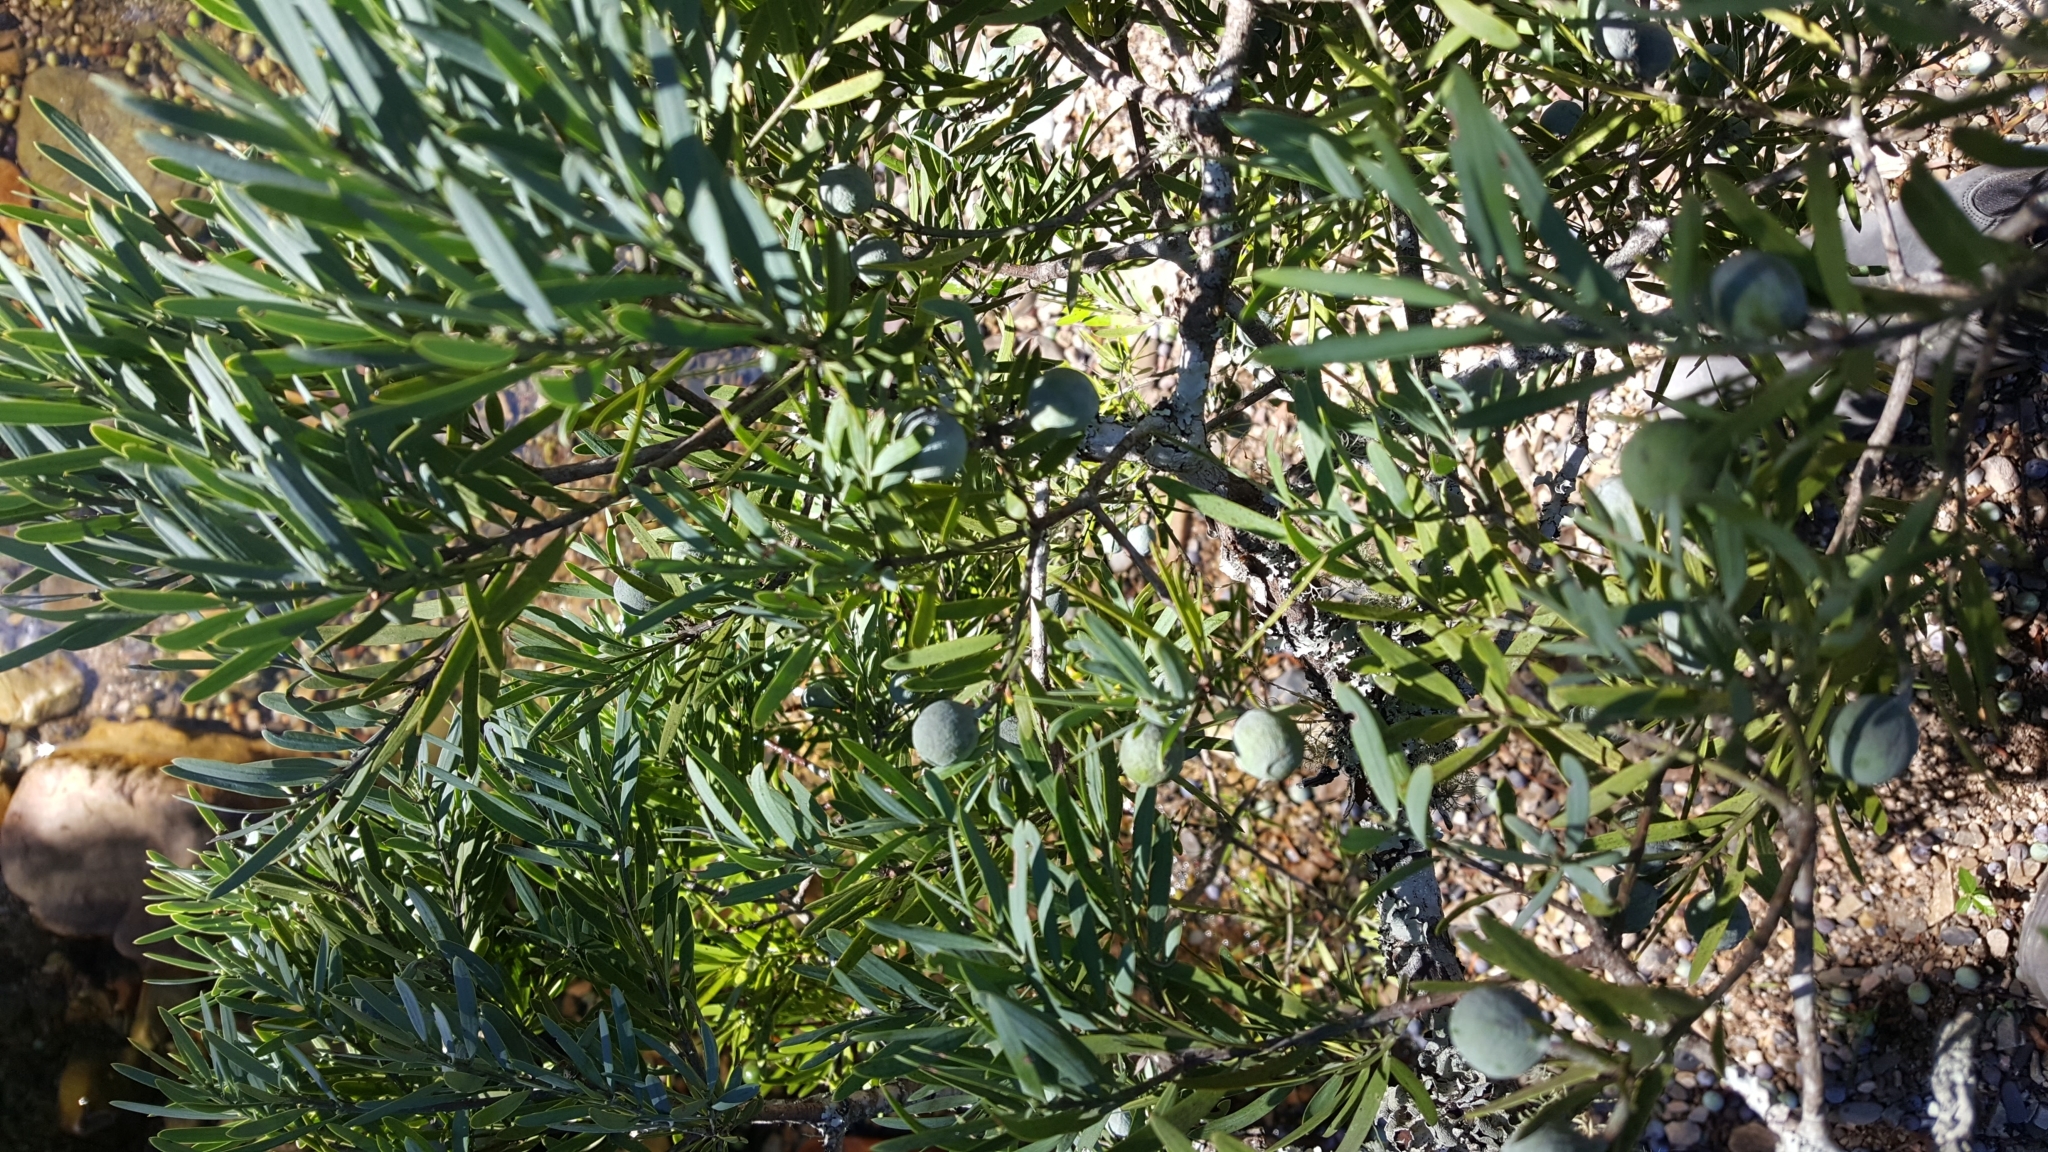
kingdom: Plantae
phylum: Tracheophyta
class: Pinopsida
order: Pinales
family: Podocarpaceae
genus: Afrocarpus
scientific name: Afrocarpus falcatus
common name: Bastard yellowwood
